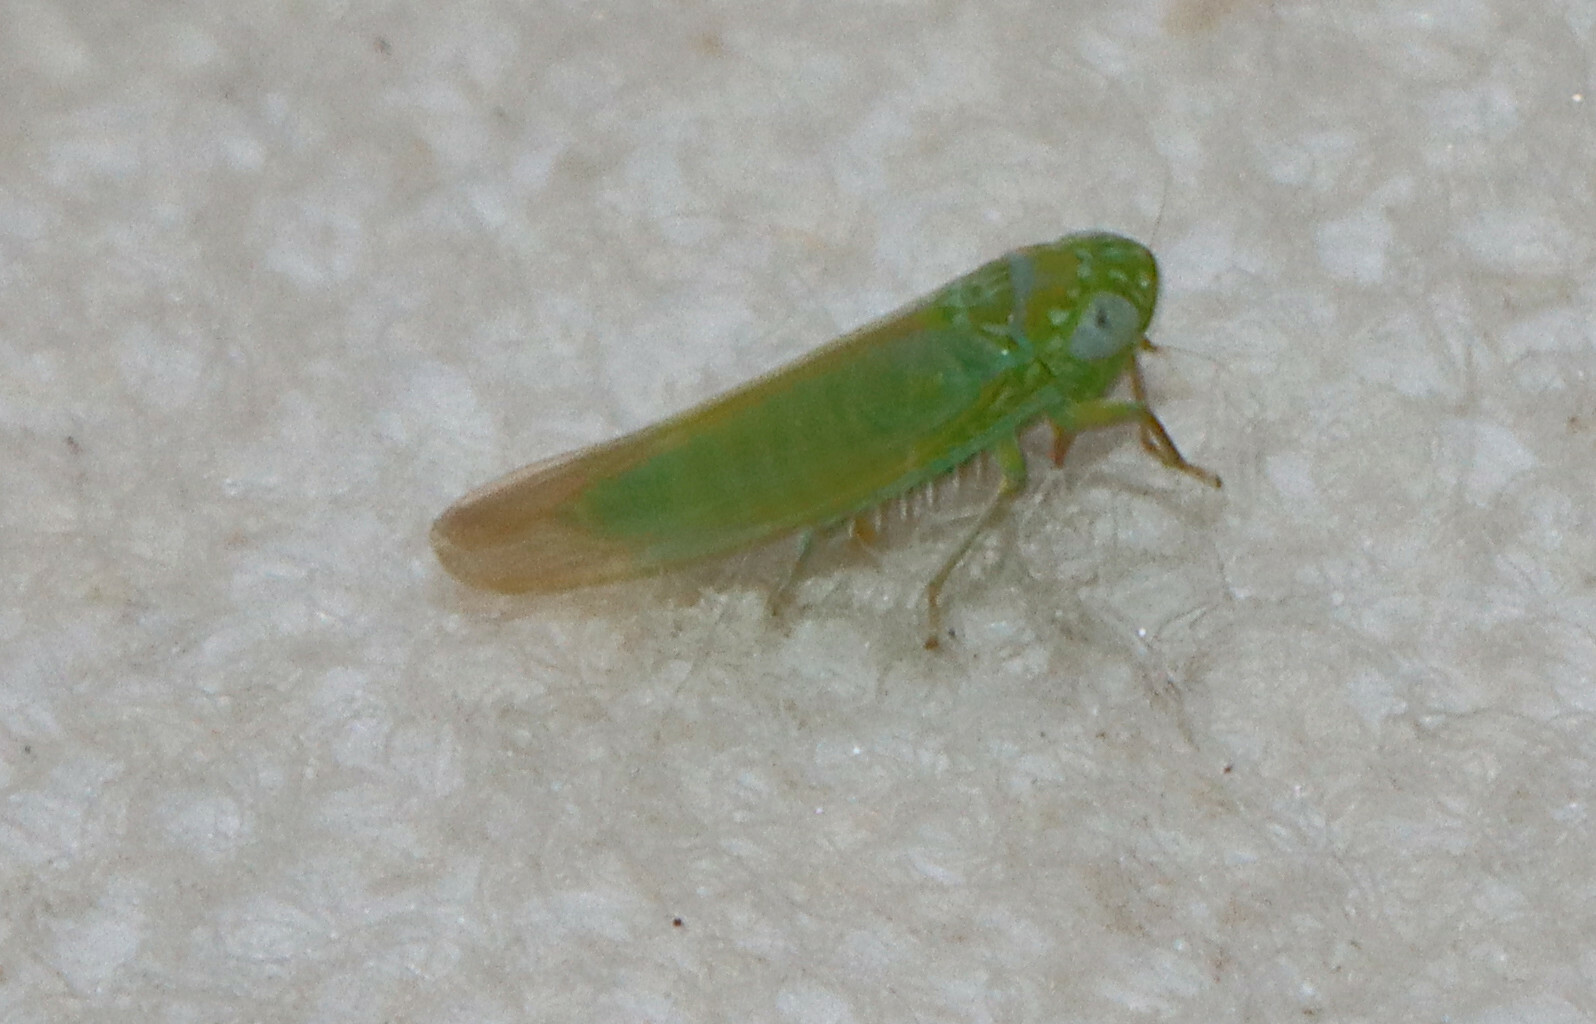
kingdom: Animalia
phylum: Arthropoda
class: Insecta
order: Hemiptera
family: Cicadellidae
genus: Empoasca
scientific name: Empoasca fabae
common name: Potato leafhopper
